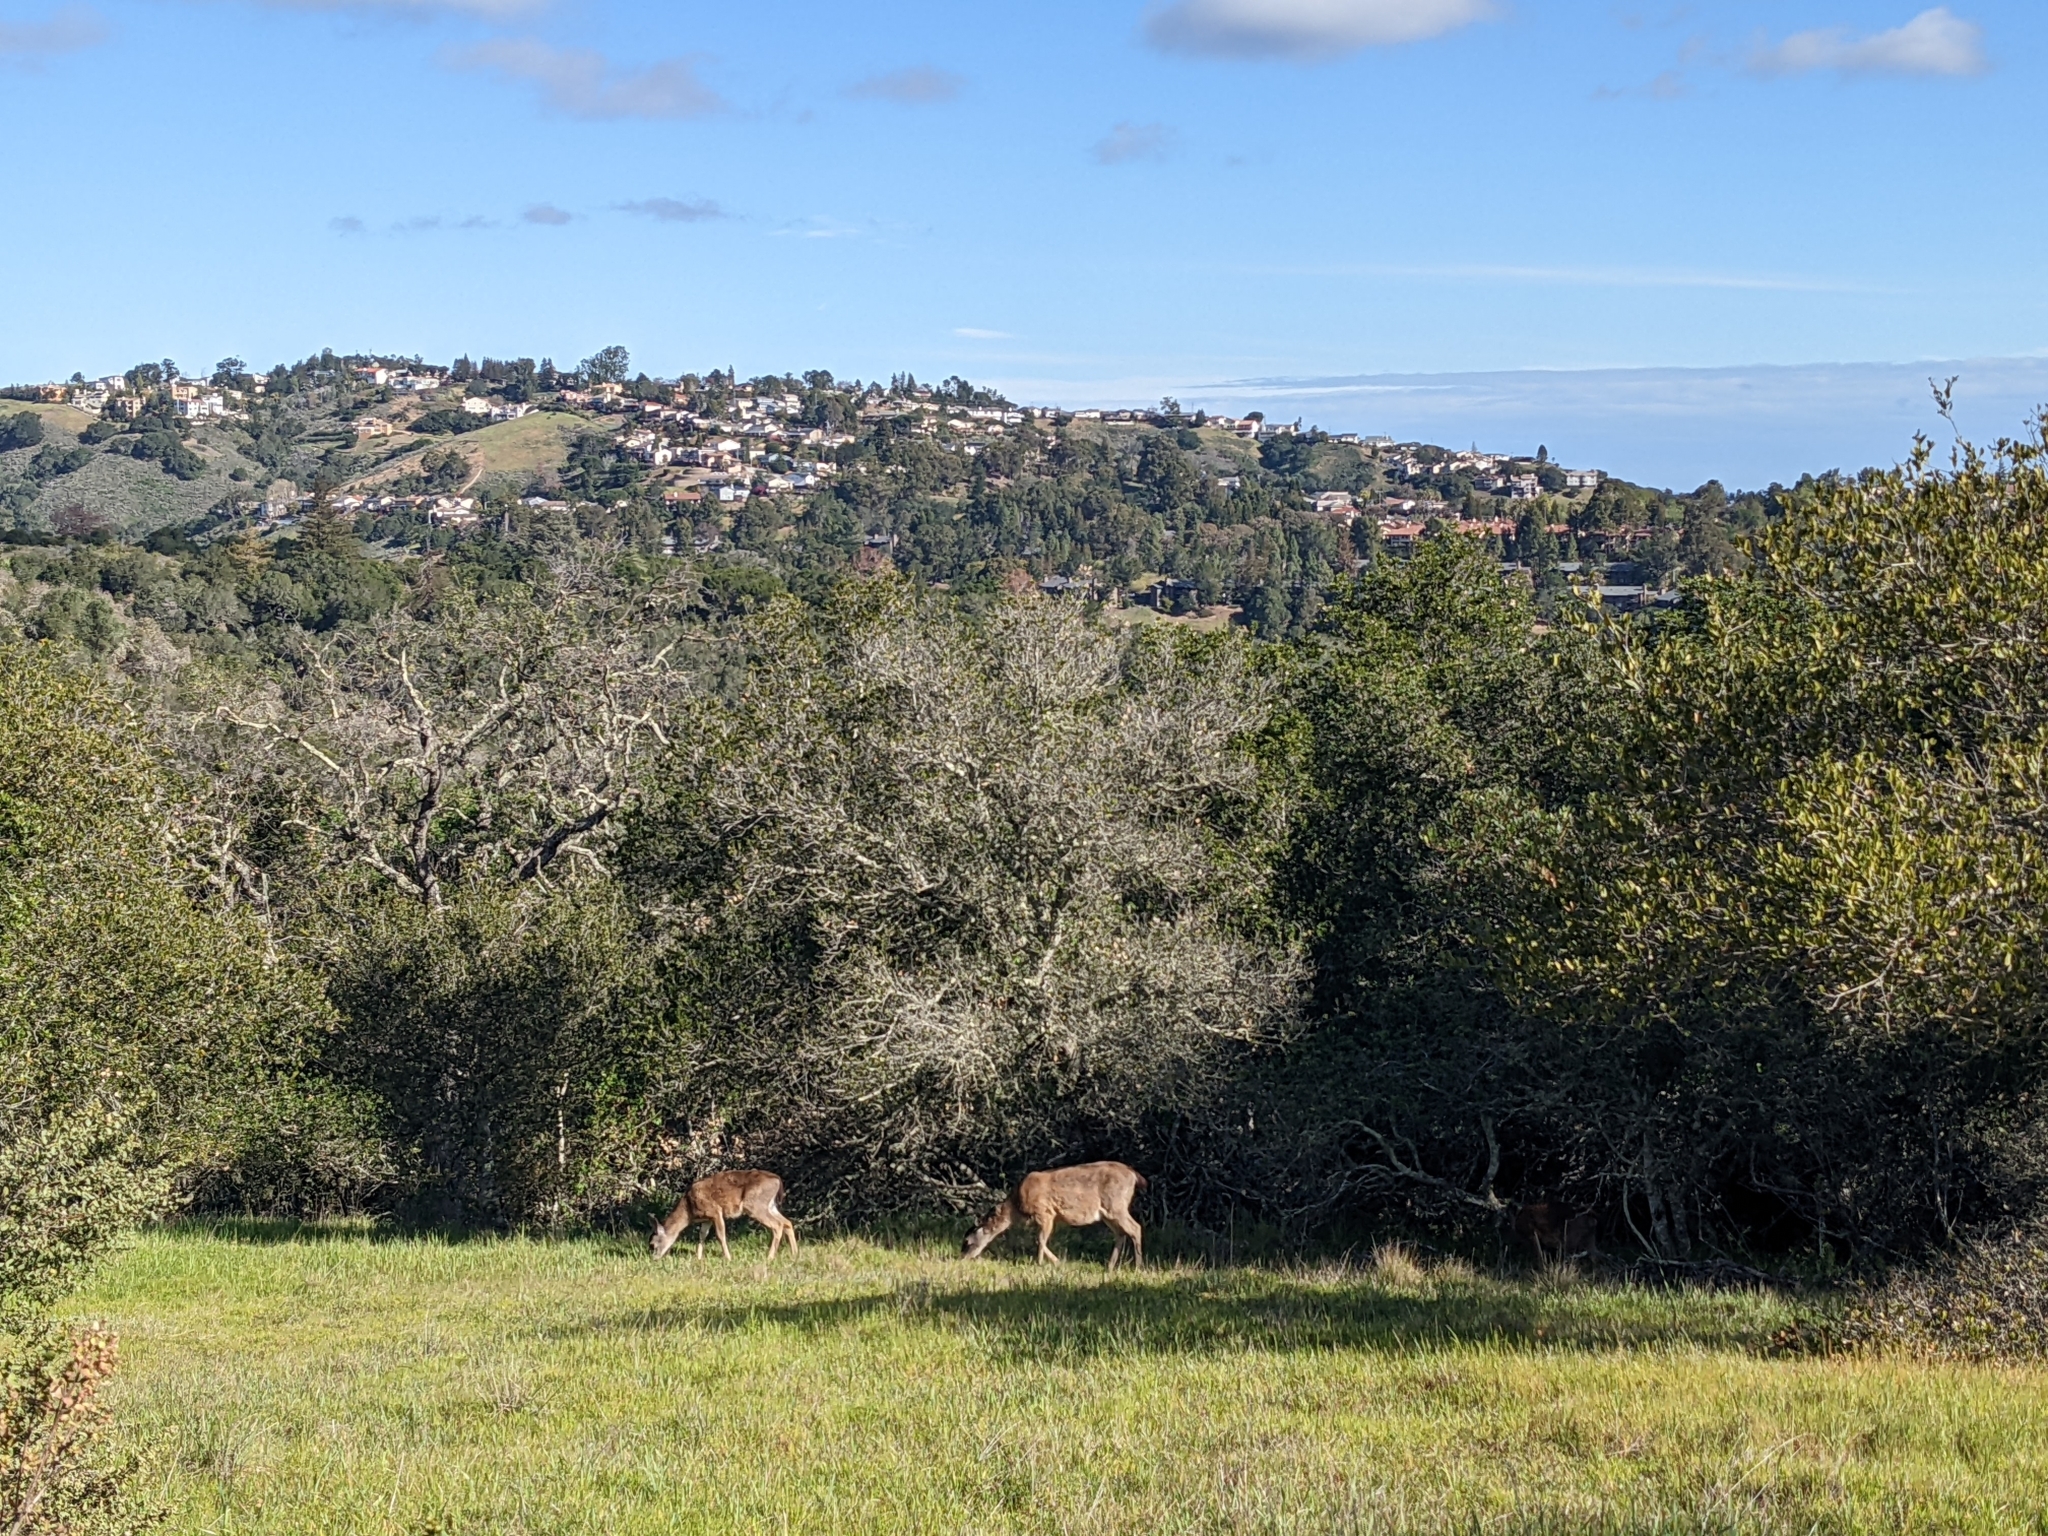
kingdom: Animalia
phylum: Chordata
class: Mammalia
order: Artiodactyla
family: Cervidae
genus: Odocoileus
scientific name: Odocoileus hemionus
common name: Mule deer
